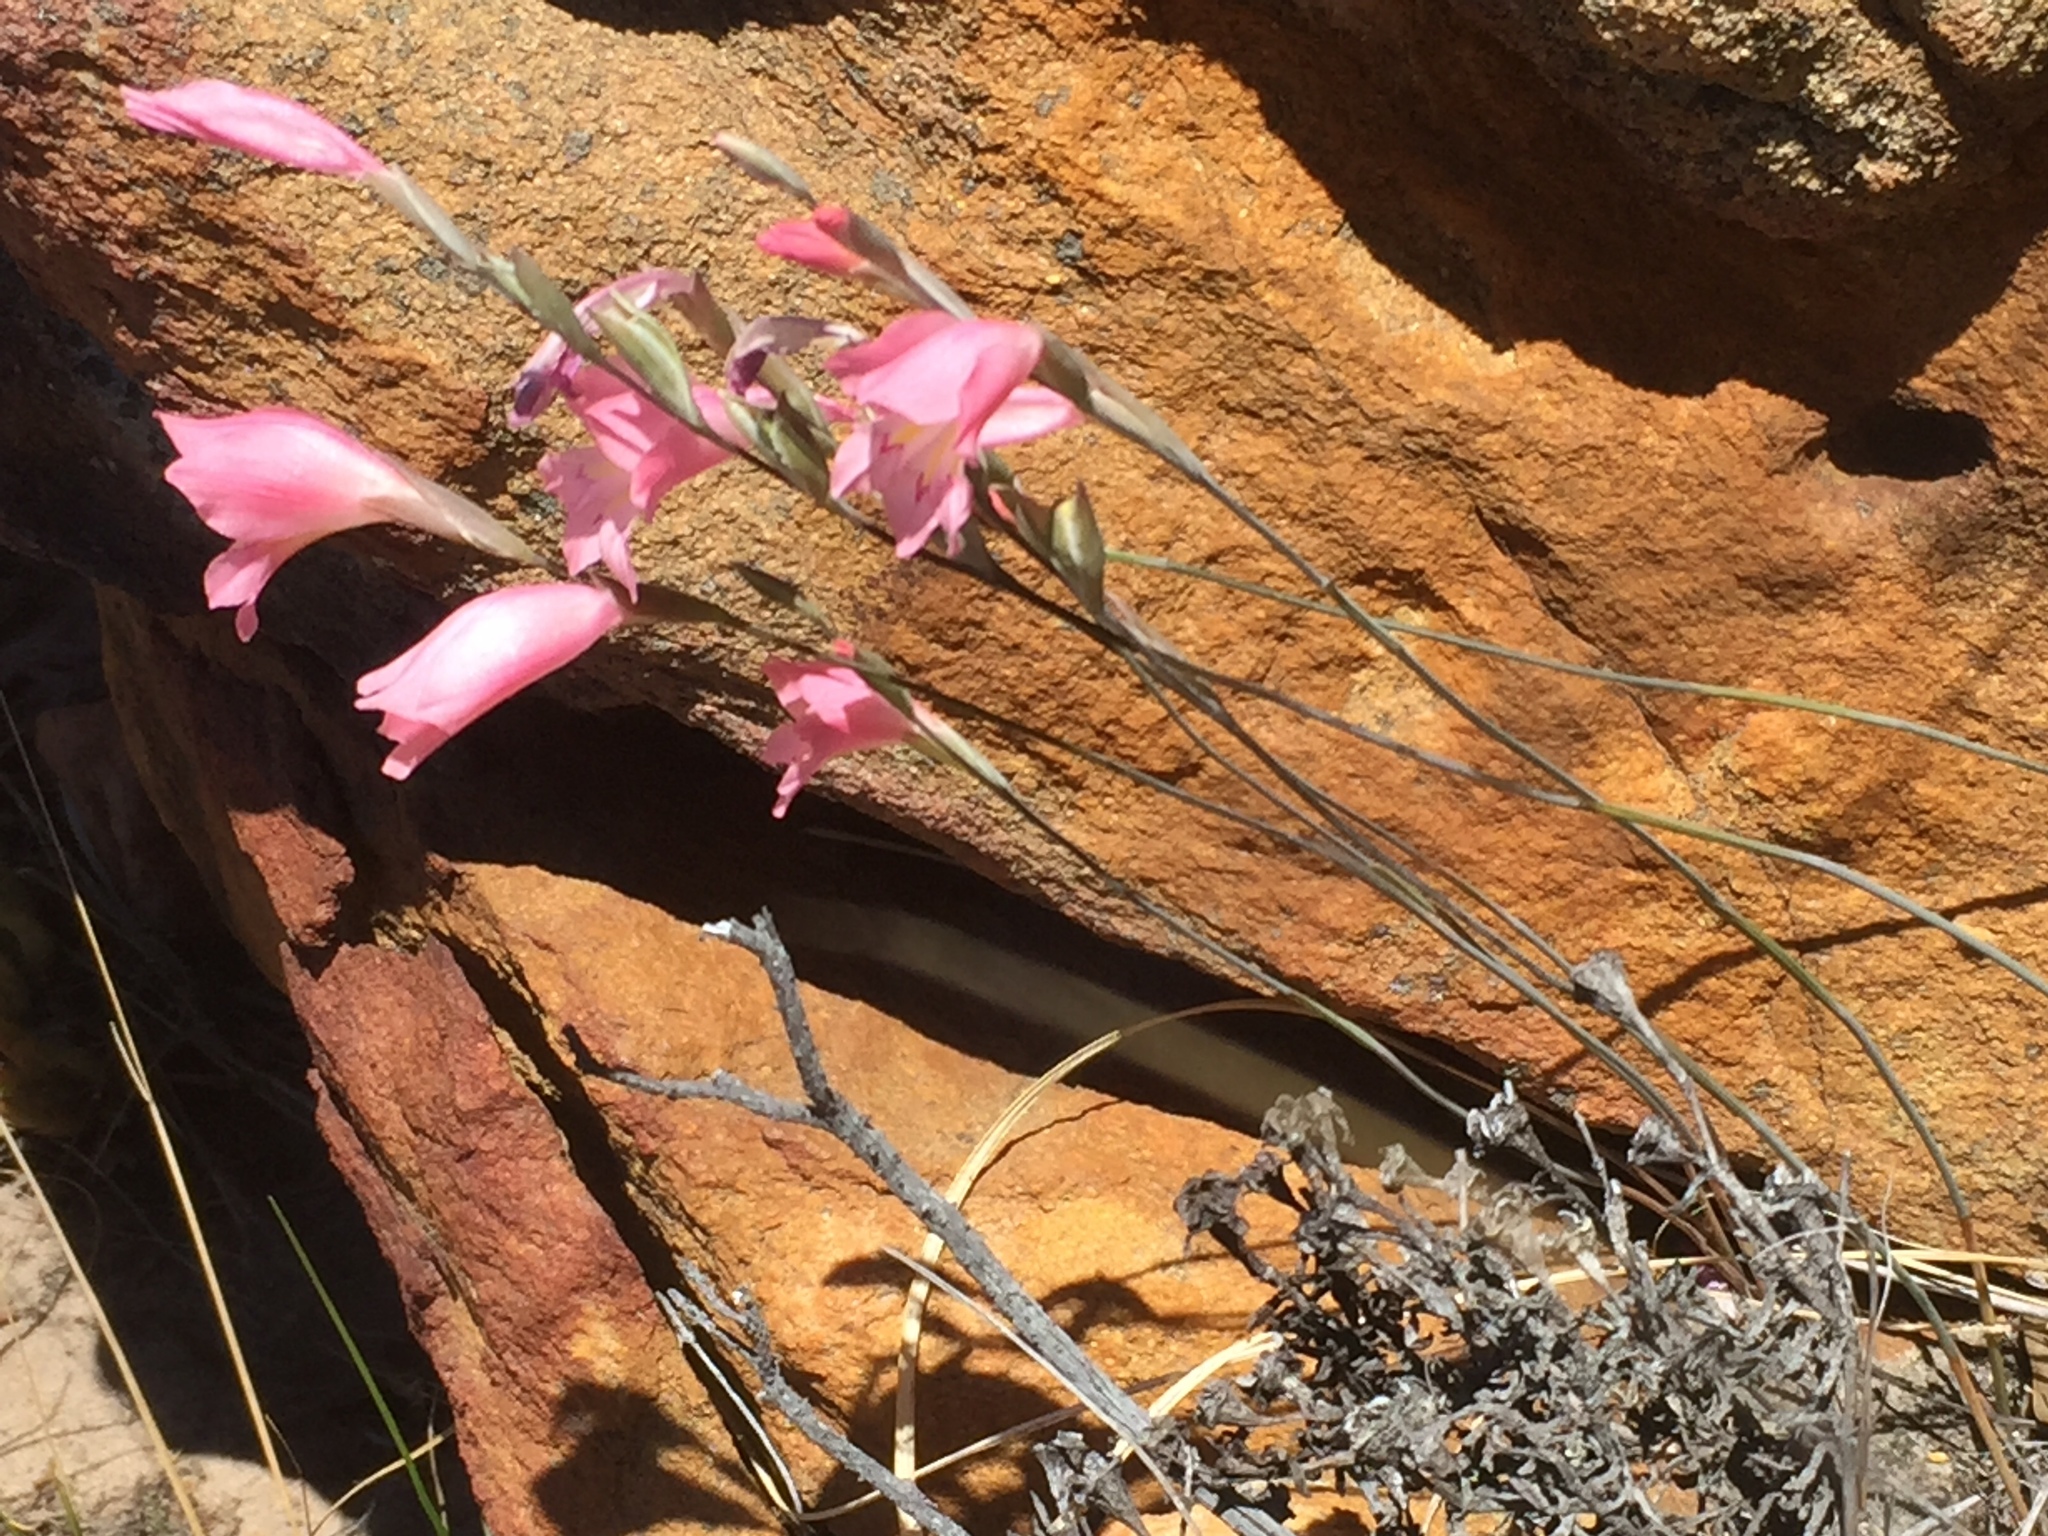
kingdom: Plantae
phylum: Tracheophyta
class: Liliopsida
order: Asparagales
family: Iridaceae
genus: Gladiolus
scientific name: Gladiolus brevifolius
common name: March pypie
